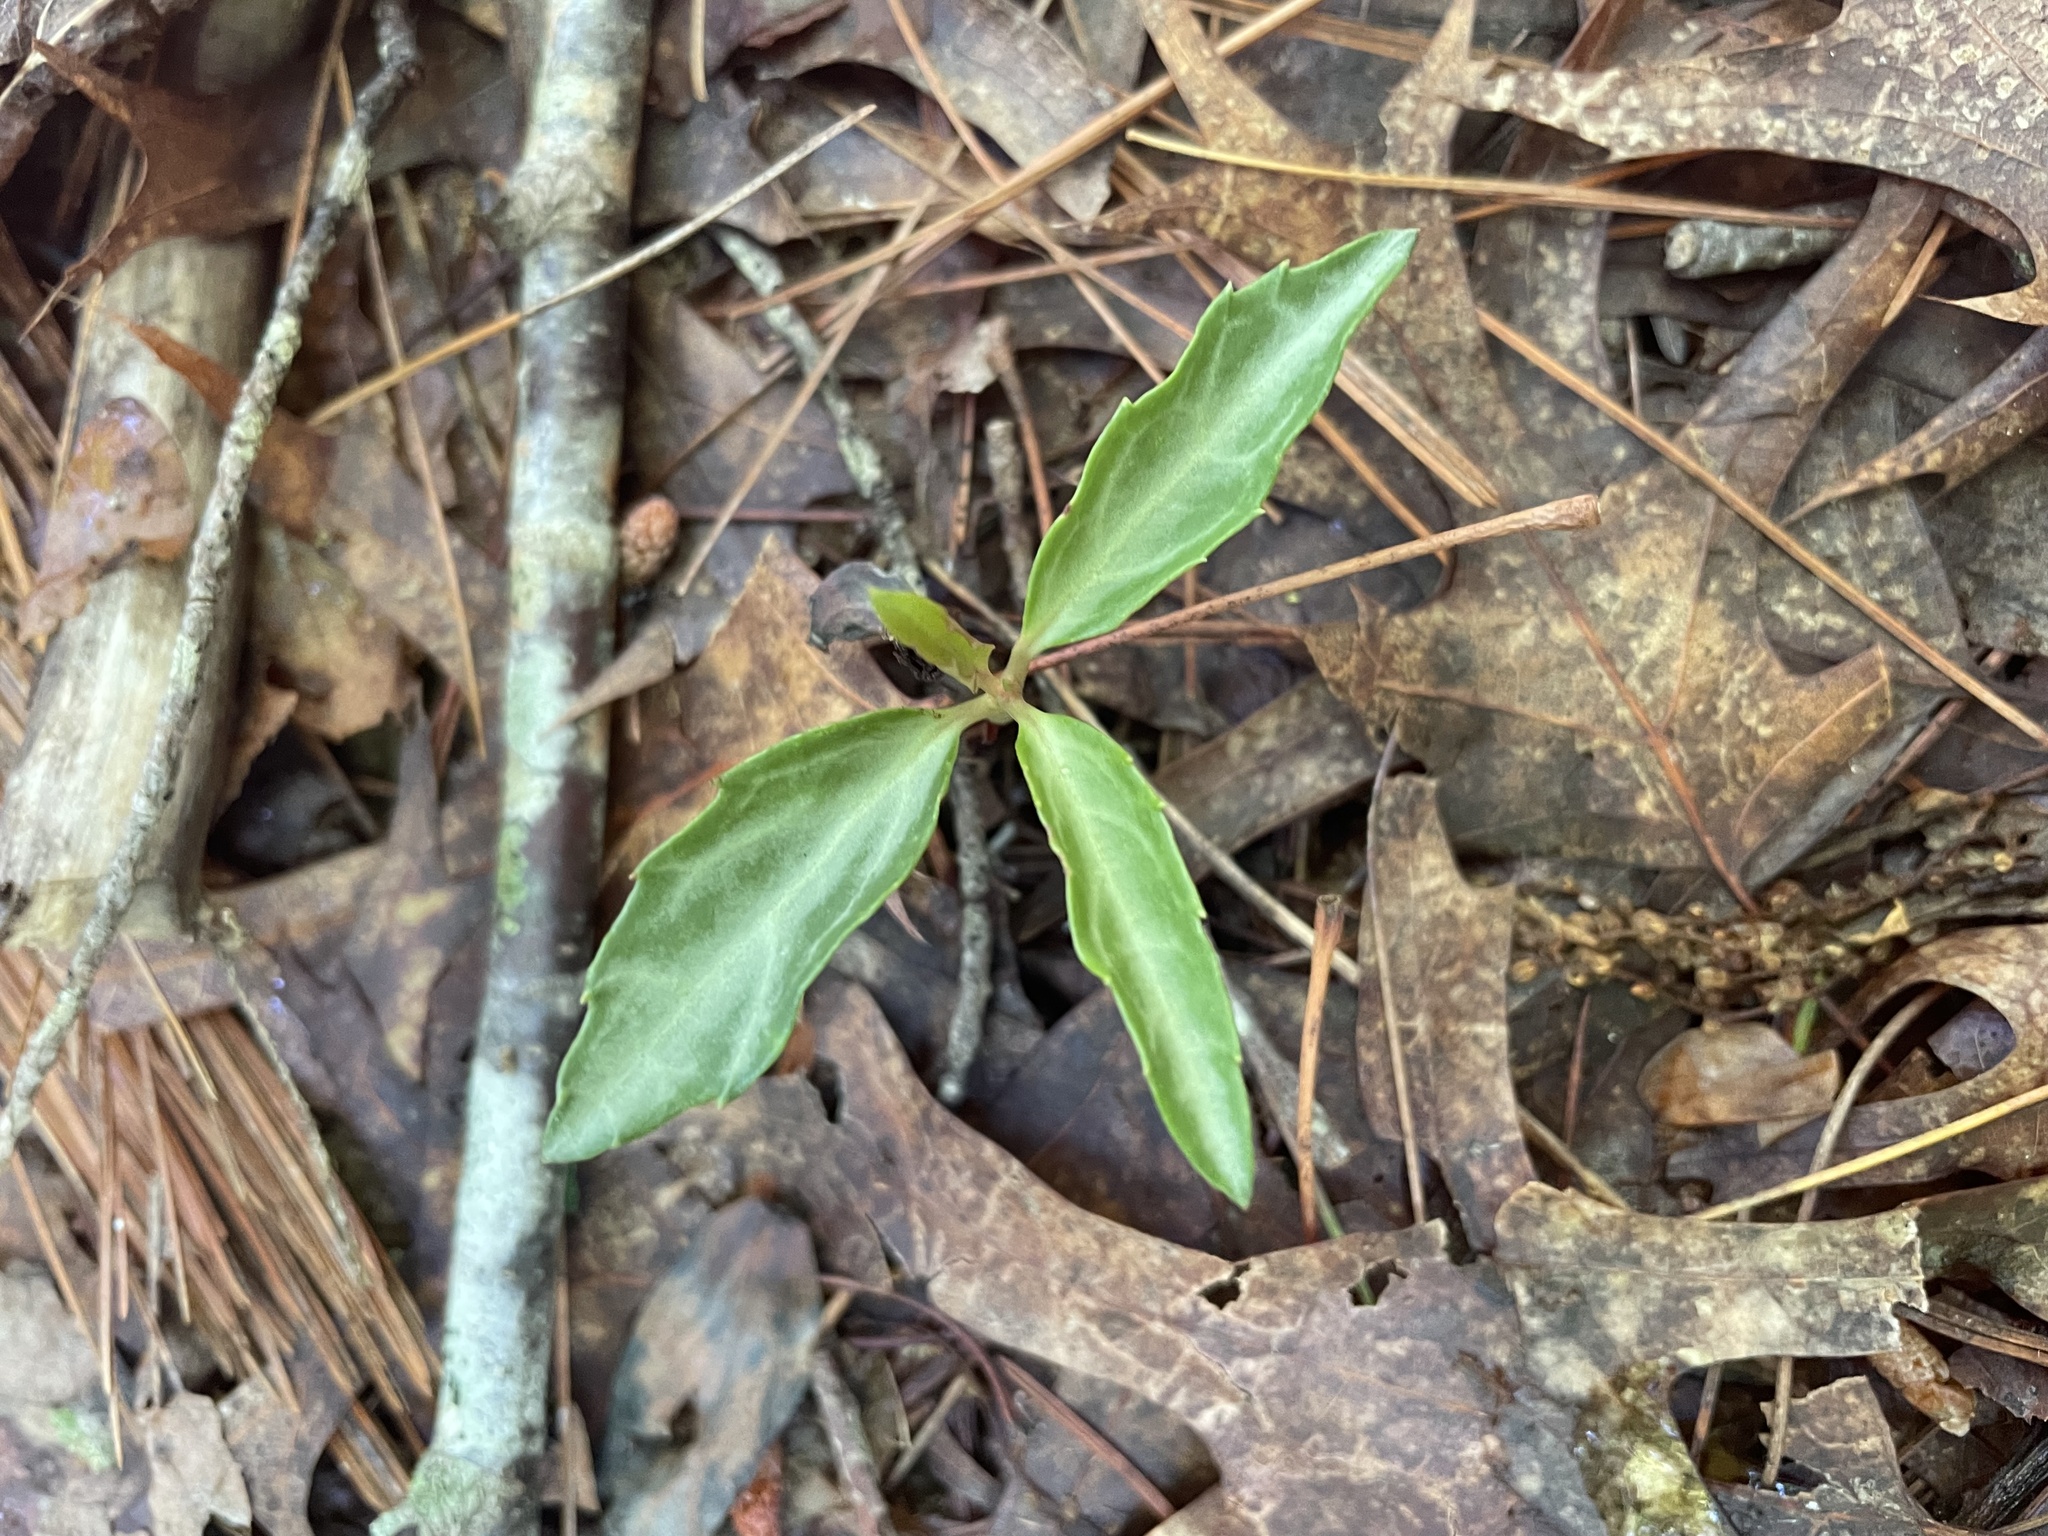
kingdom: Plantae
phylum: Tracheophyta
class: Magnoliopsida
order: Ericales
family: Ericaceae
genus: Chimaphila
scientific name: Chimaphila maculata
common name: Spotted pipsissewa
